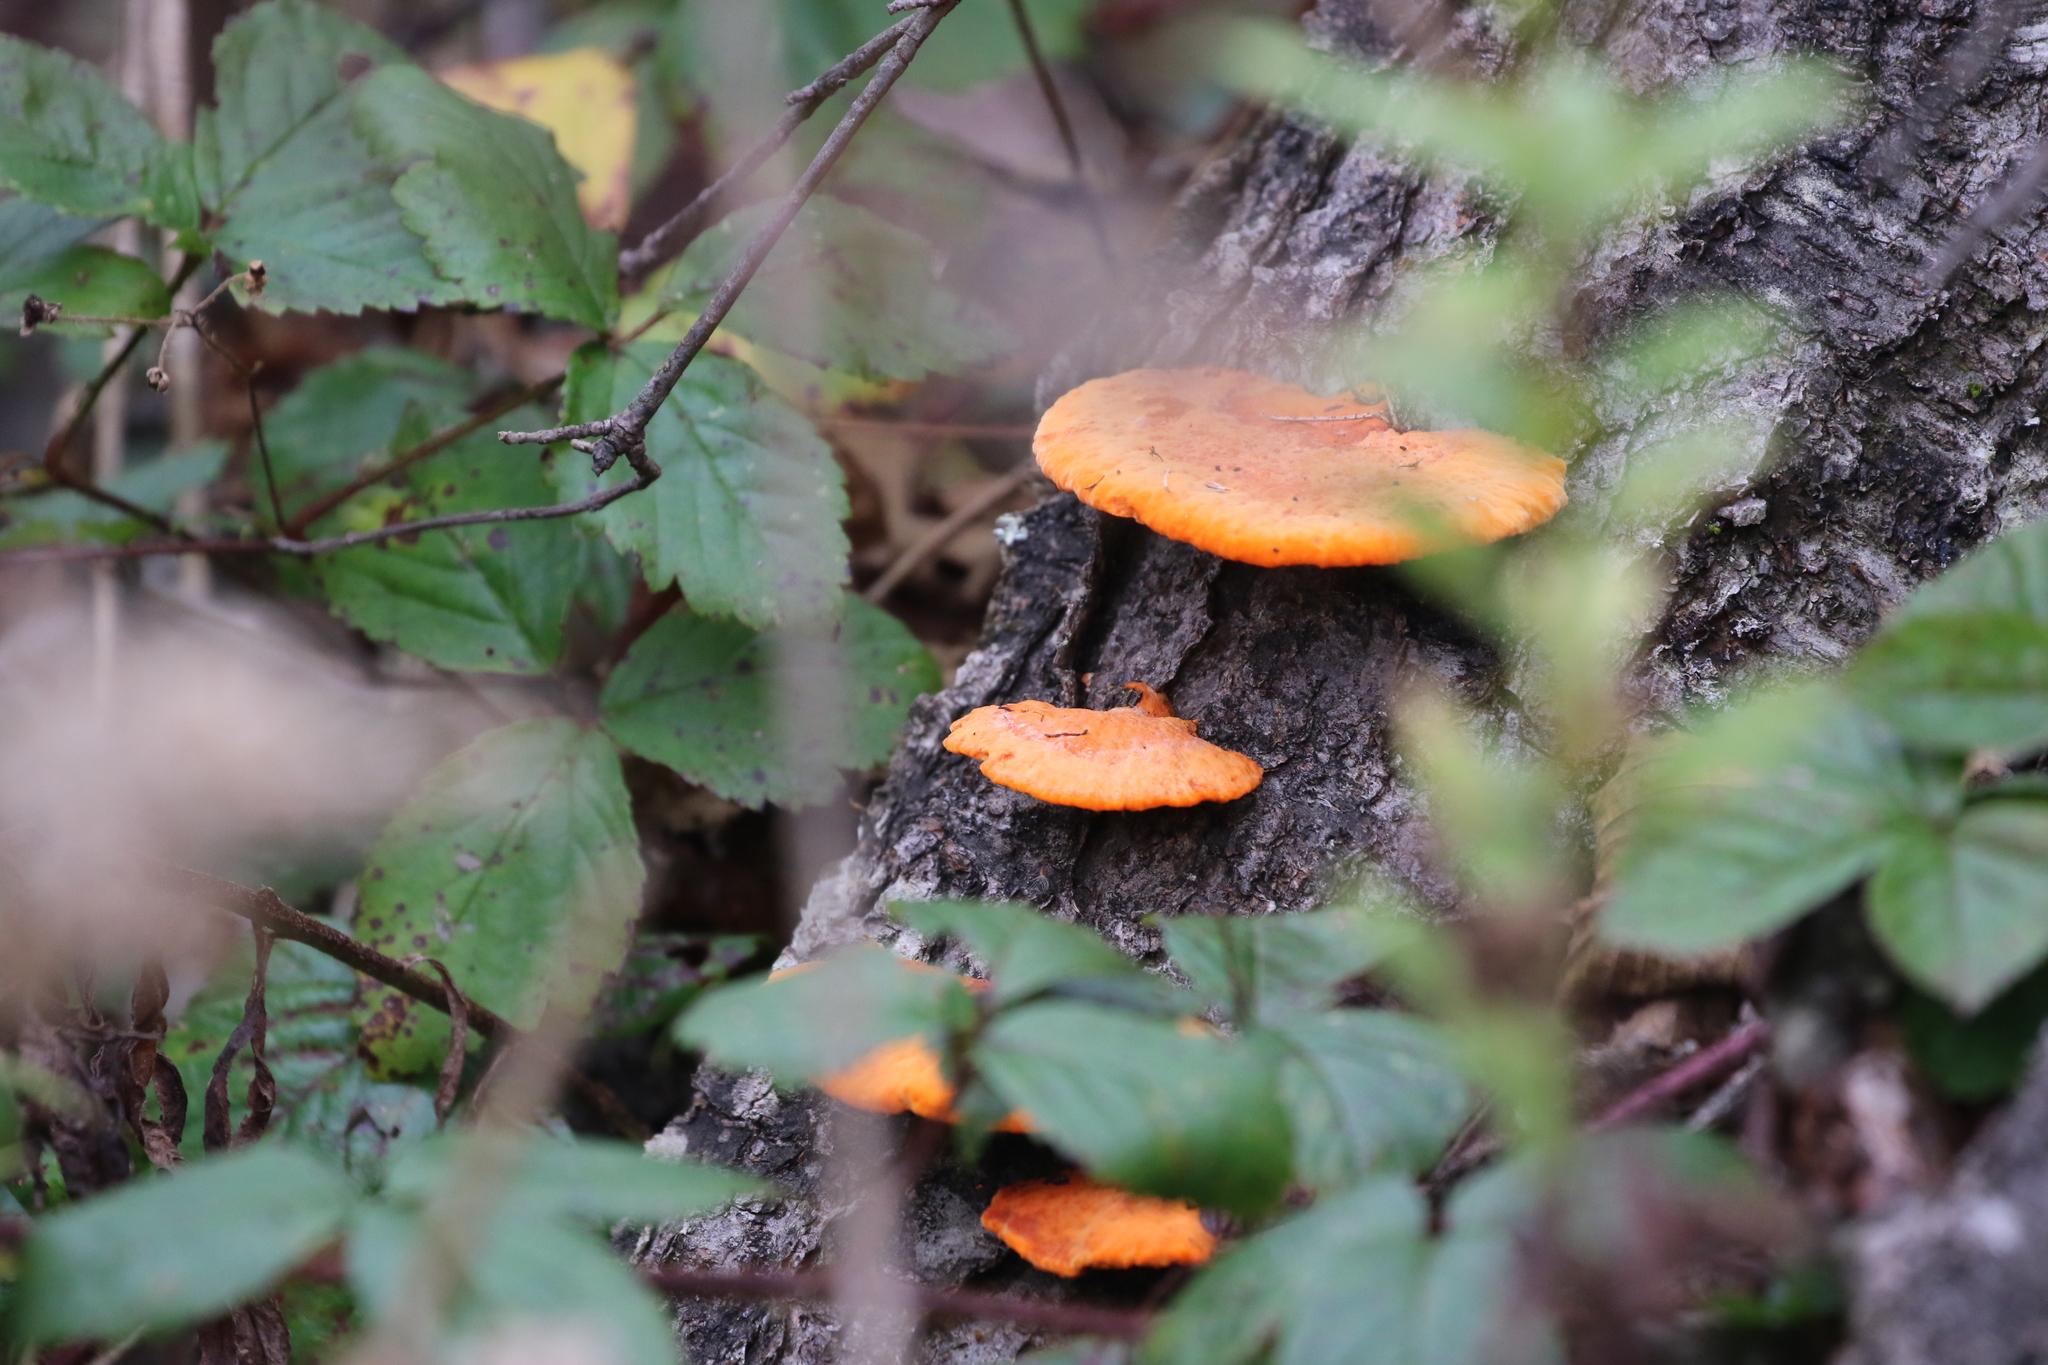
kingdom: Fungi
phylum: Basidiomycota
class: Agaricomycetes
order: Polyporales
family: Polyporaceae
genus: Trametes
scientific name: Trametes cinnabarina
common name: Northern cinnabar polypore
